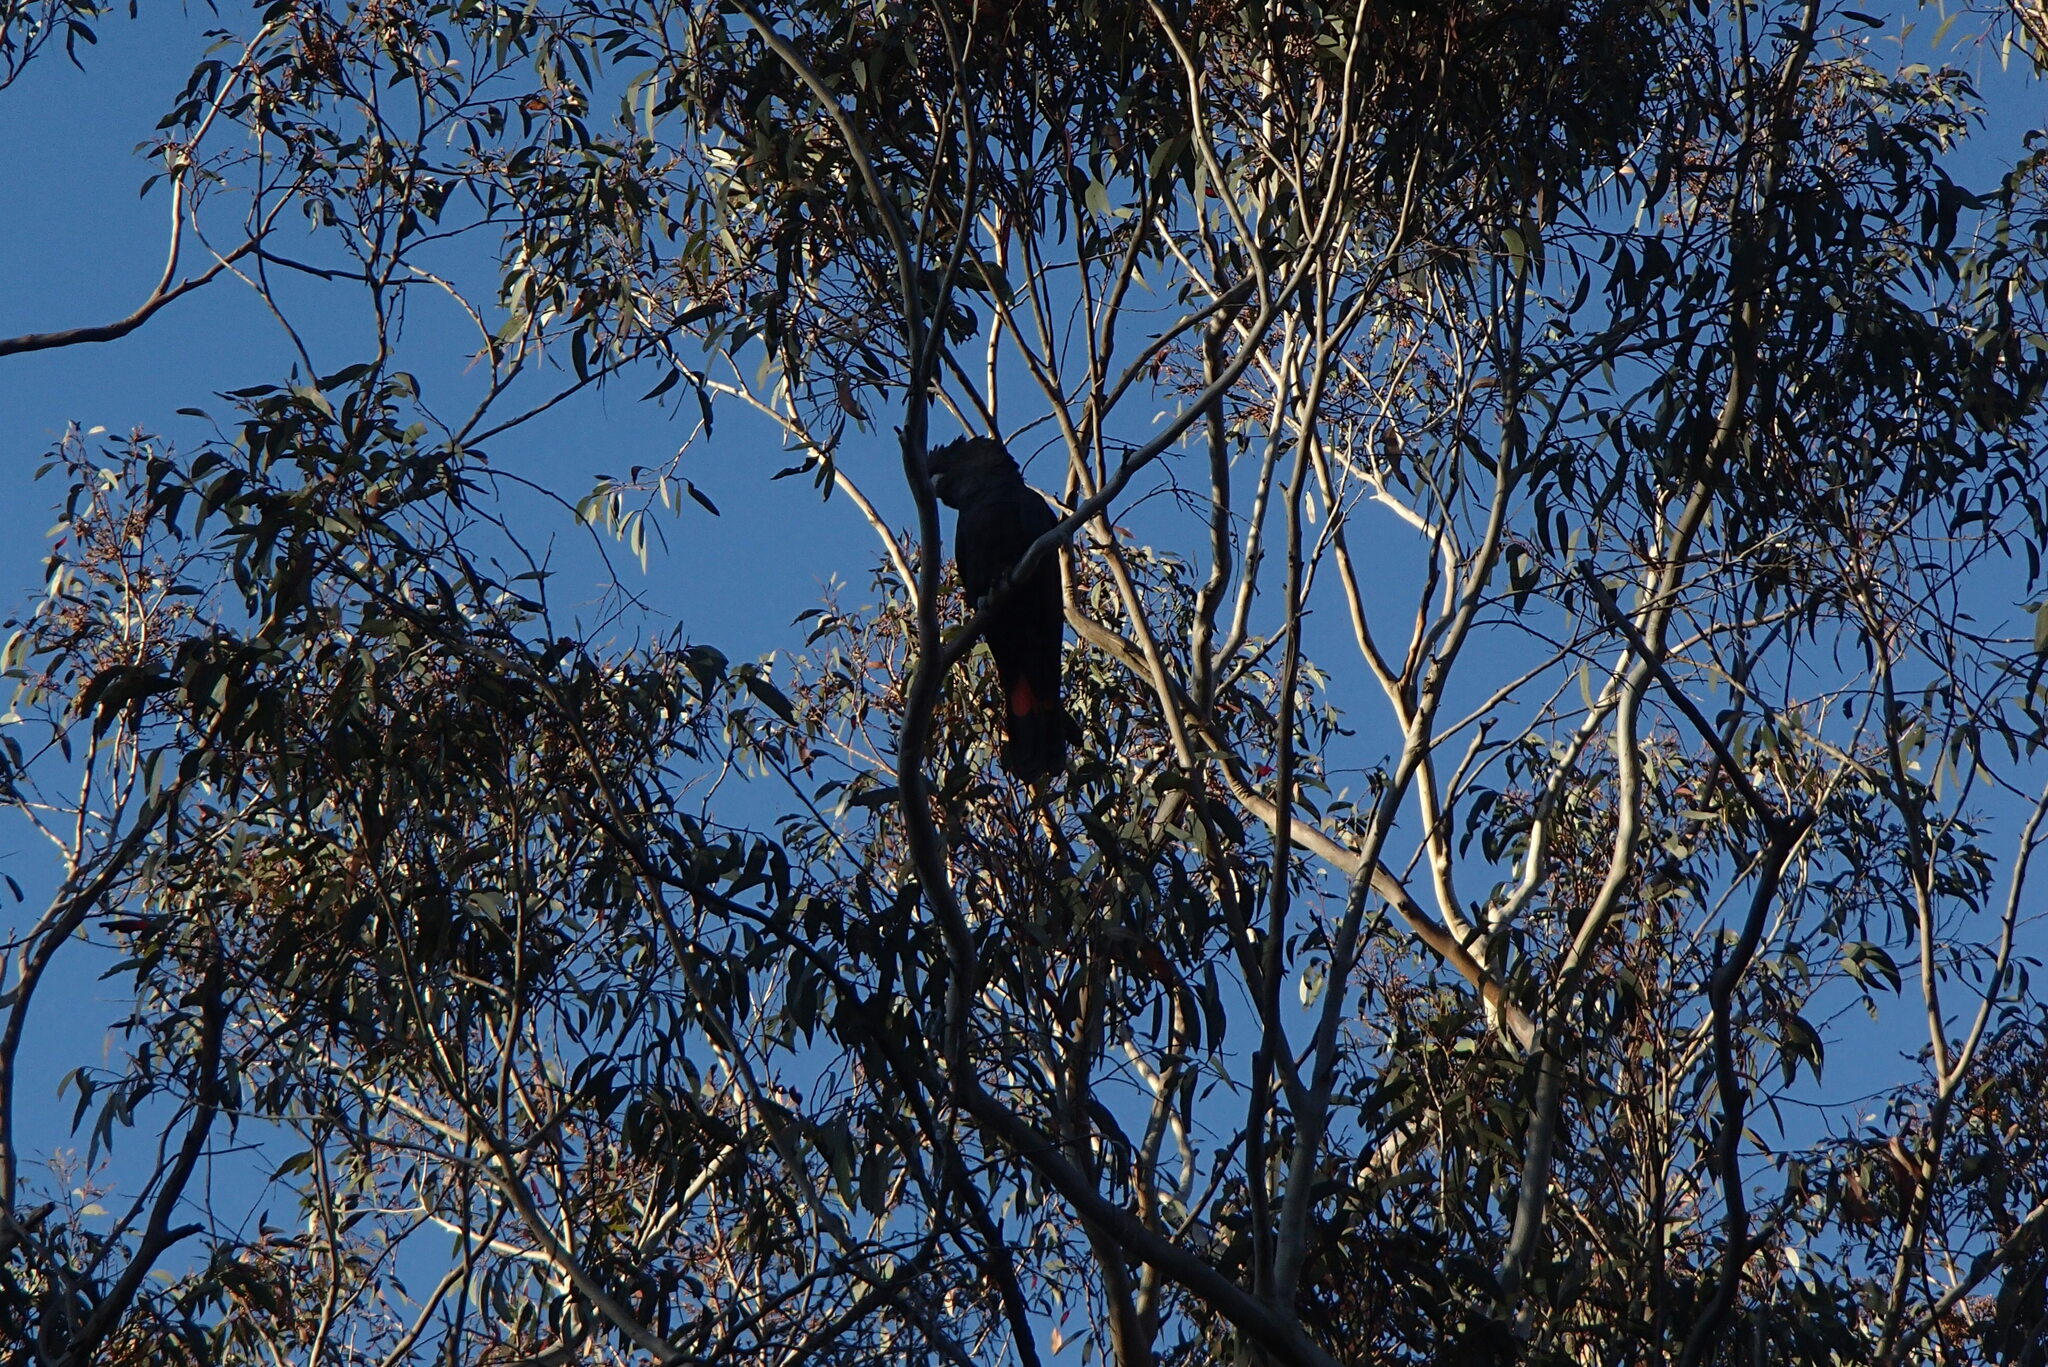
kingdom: Animalia
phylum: Chordata
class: Aves
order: Psittaciformes
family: Psittacidae
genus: Calyptorhynchus
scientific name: Calyptorhynchus lathami
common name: Glossy black cockatoo
